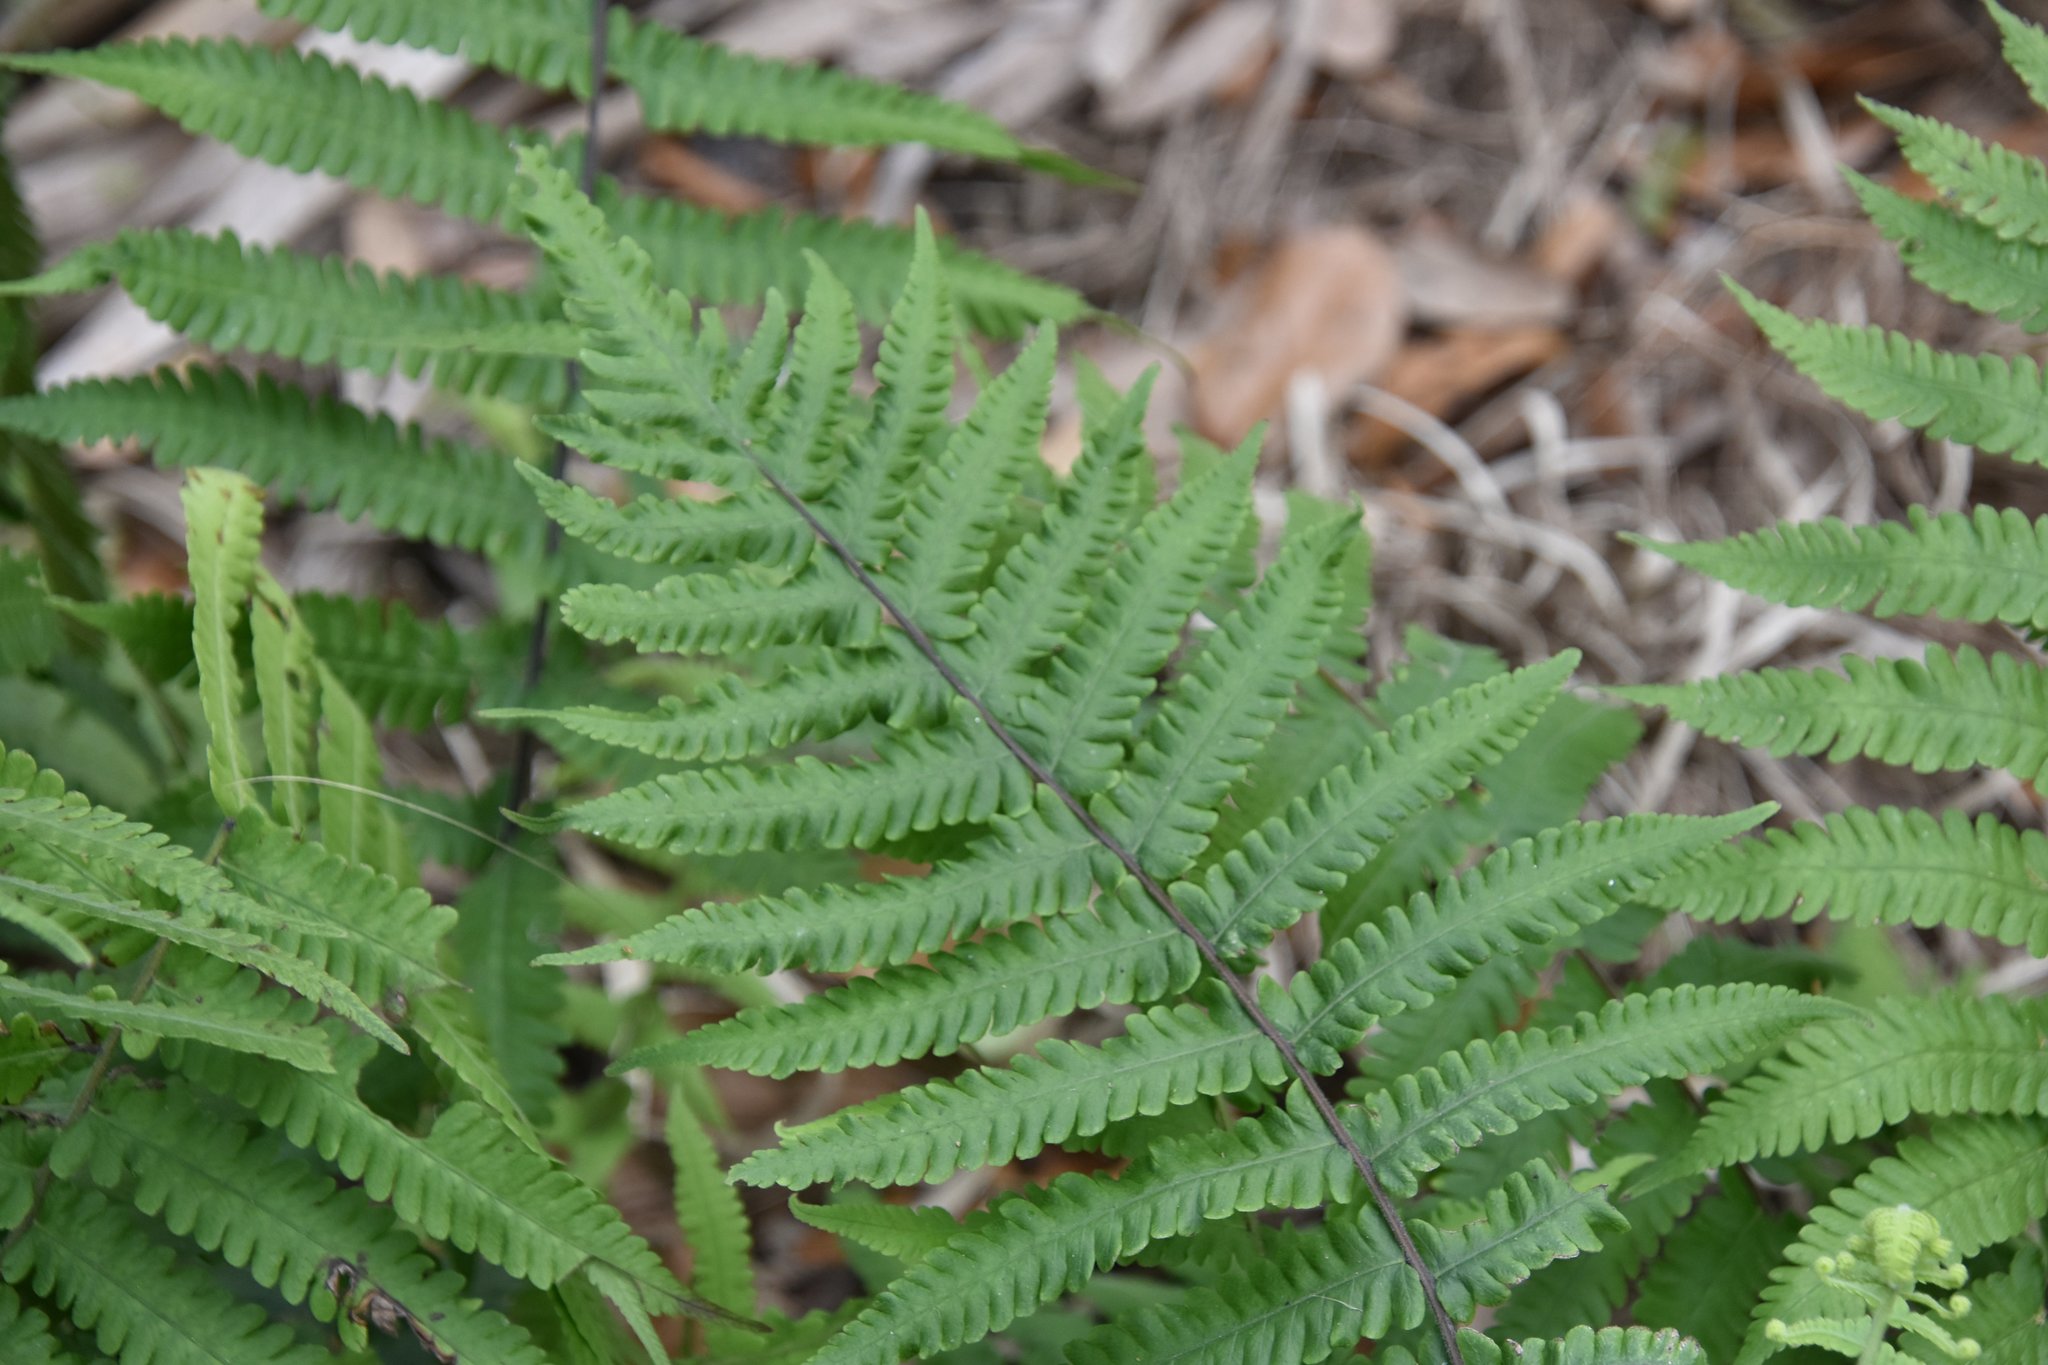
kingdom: Plantae
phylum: Tracheophyta
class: Polypodiopsida
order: Polypodiales
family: Thelypteridaceae
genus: Christella
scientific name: Christella dentata
